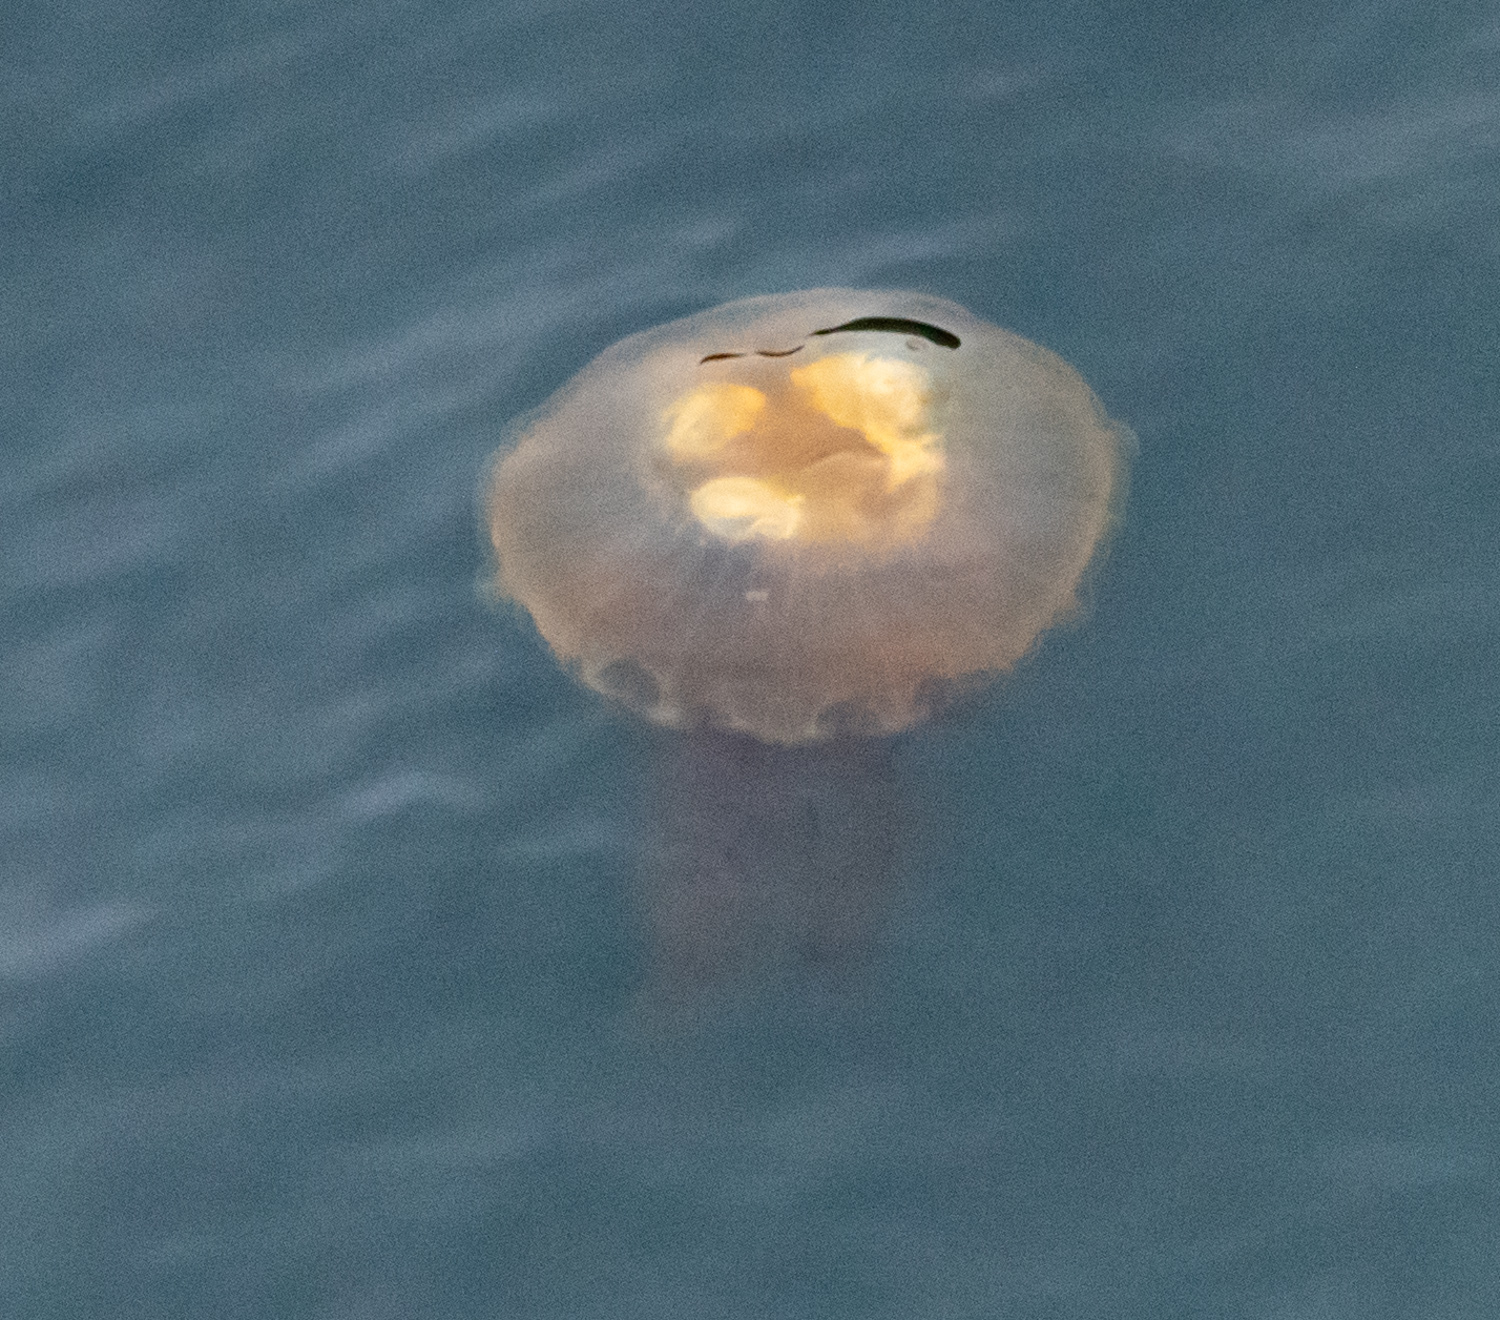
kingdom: Animalia
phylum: Cnidaria
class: Scyphozoa
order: Semaeostomeae
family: Pelagiidae
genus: Chrysaora
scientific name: Chrysaora fuscescens
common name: Sea nettle
